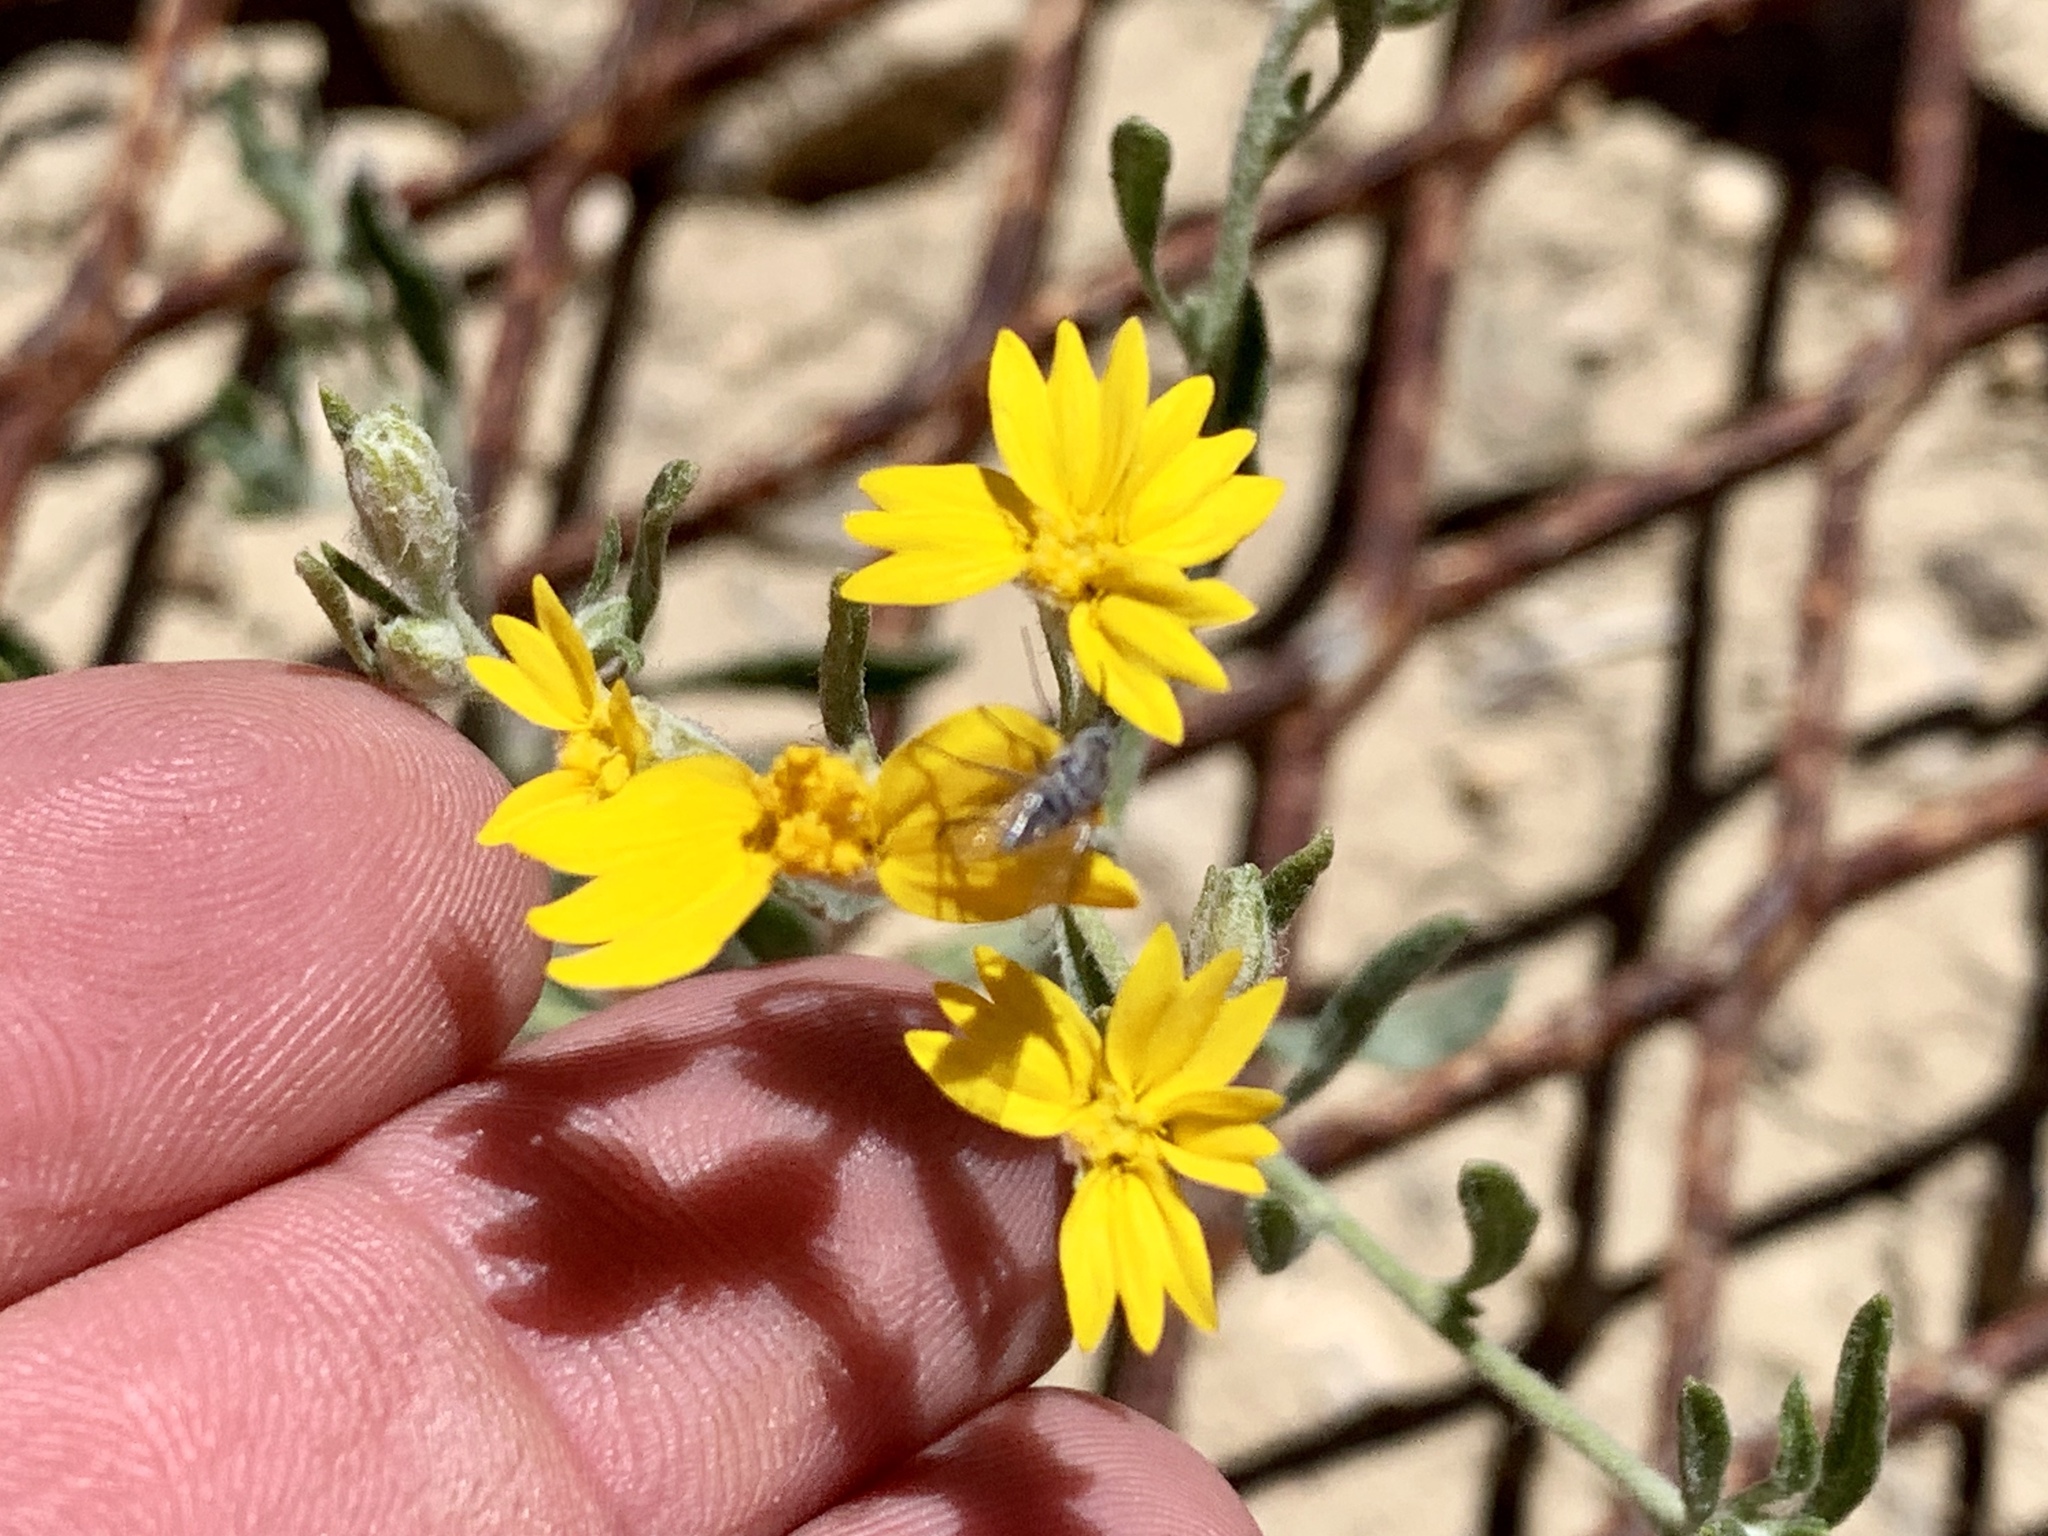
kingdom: Plantae
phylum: Tracheophyta
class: Magnoliopsida
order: Asterales
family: Asteraceae
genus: Psilostrophe
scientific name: Psilostrophe tagetina
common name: Marigold paper-flower
